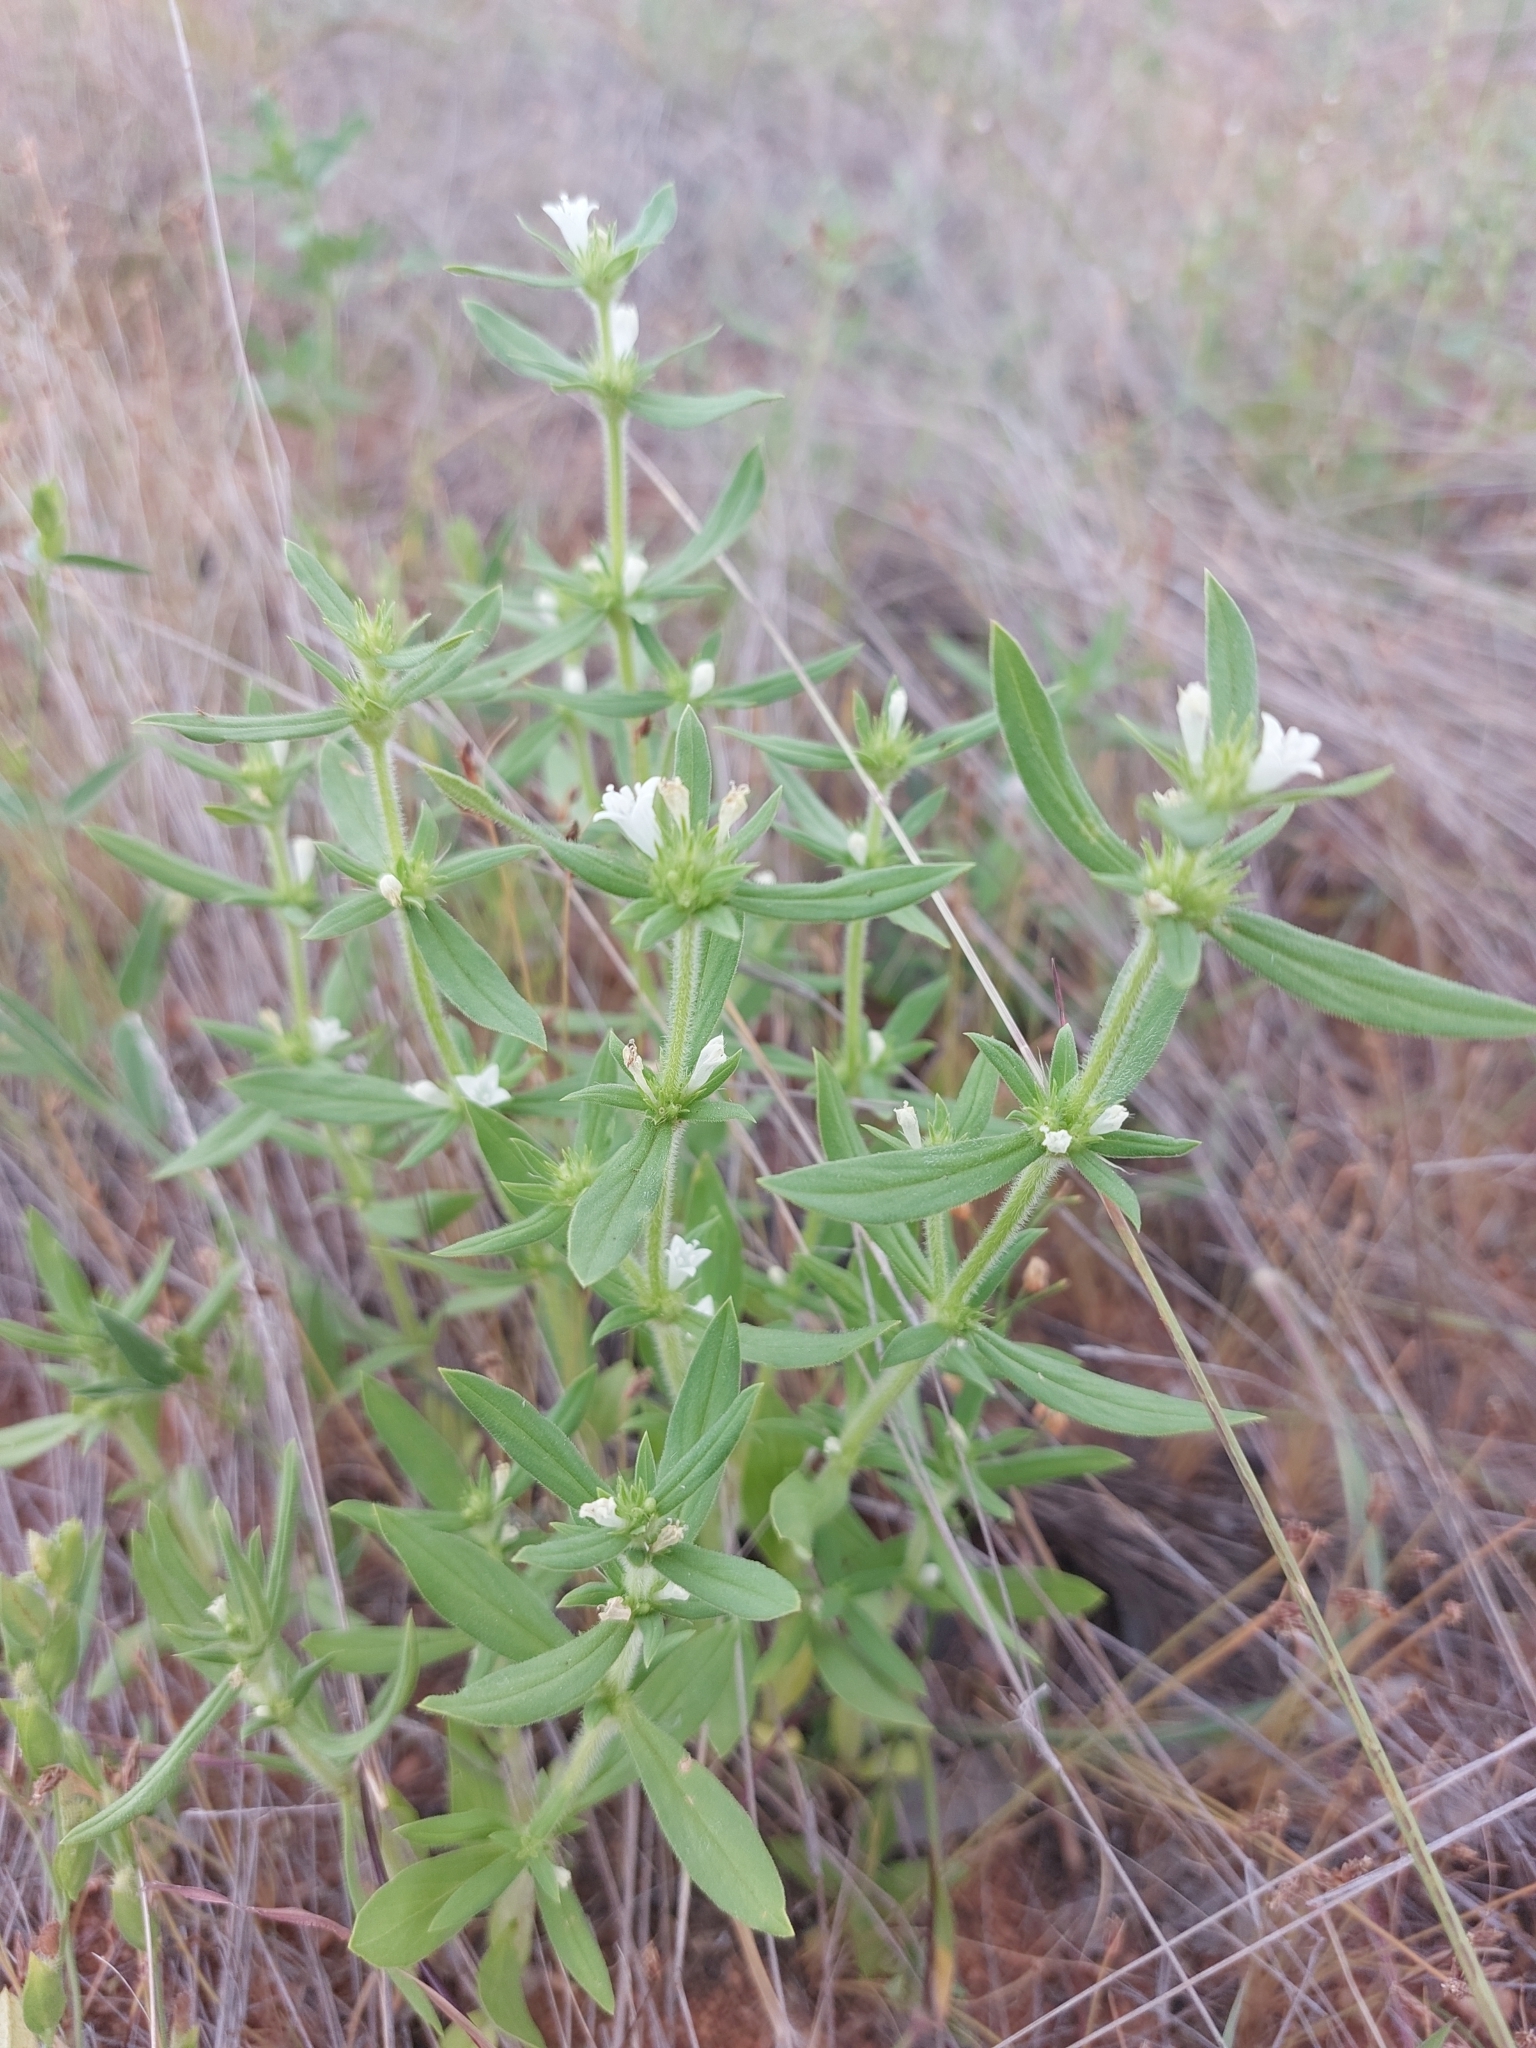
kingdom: Plantae
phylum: Tracheophyta
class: Magnoliopsida
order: Gentianales
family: Rubiaceae
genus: Spermacoce
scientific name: Spermacoce senensis
